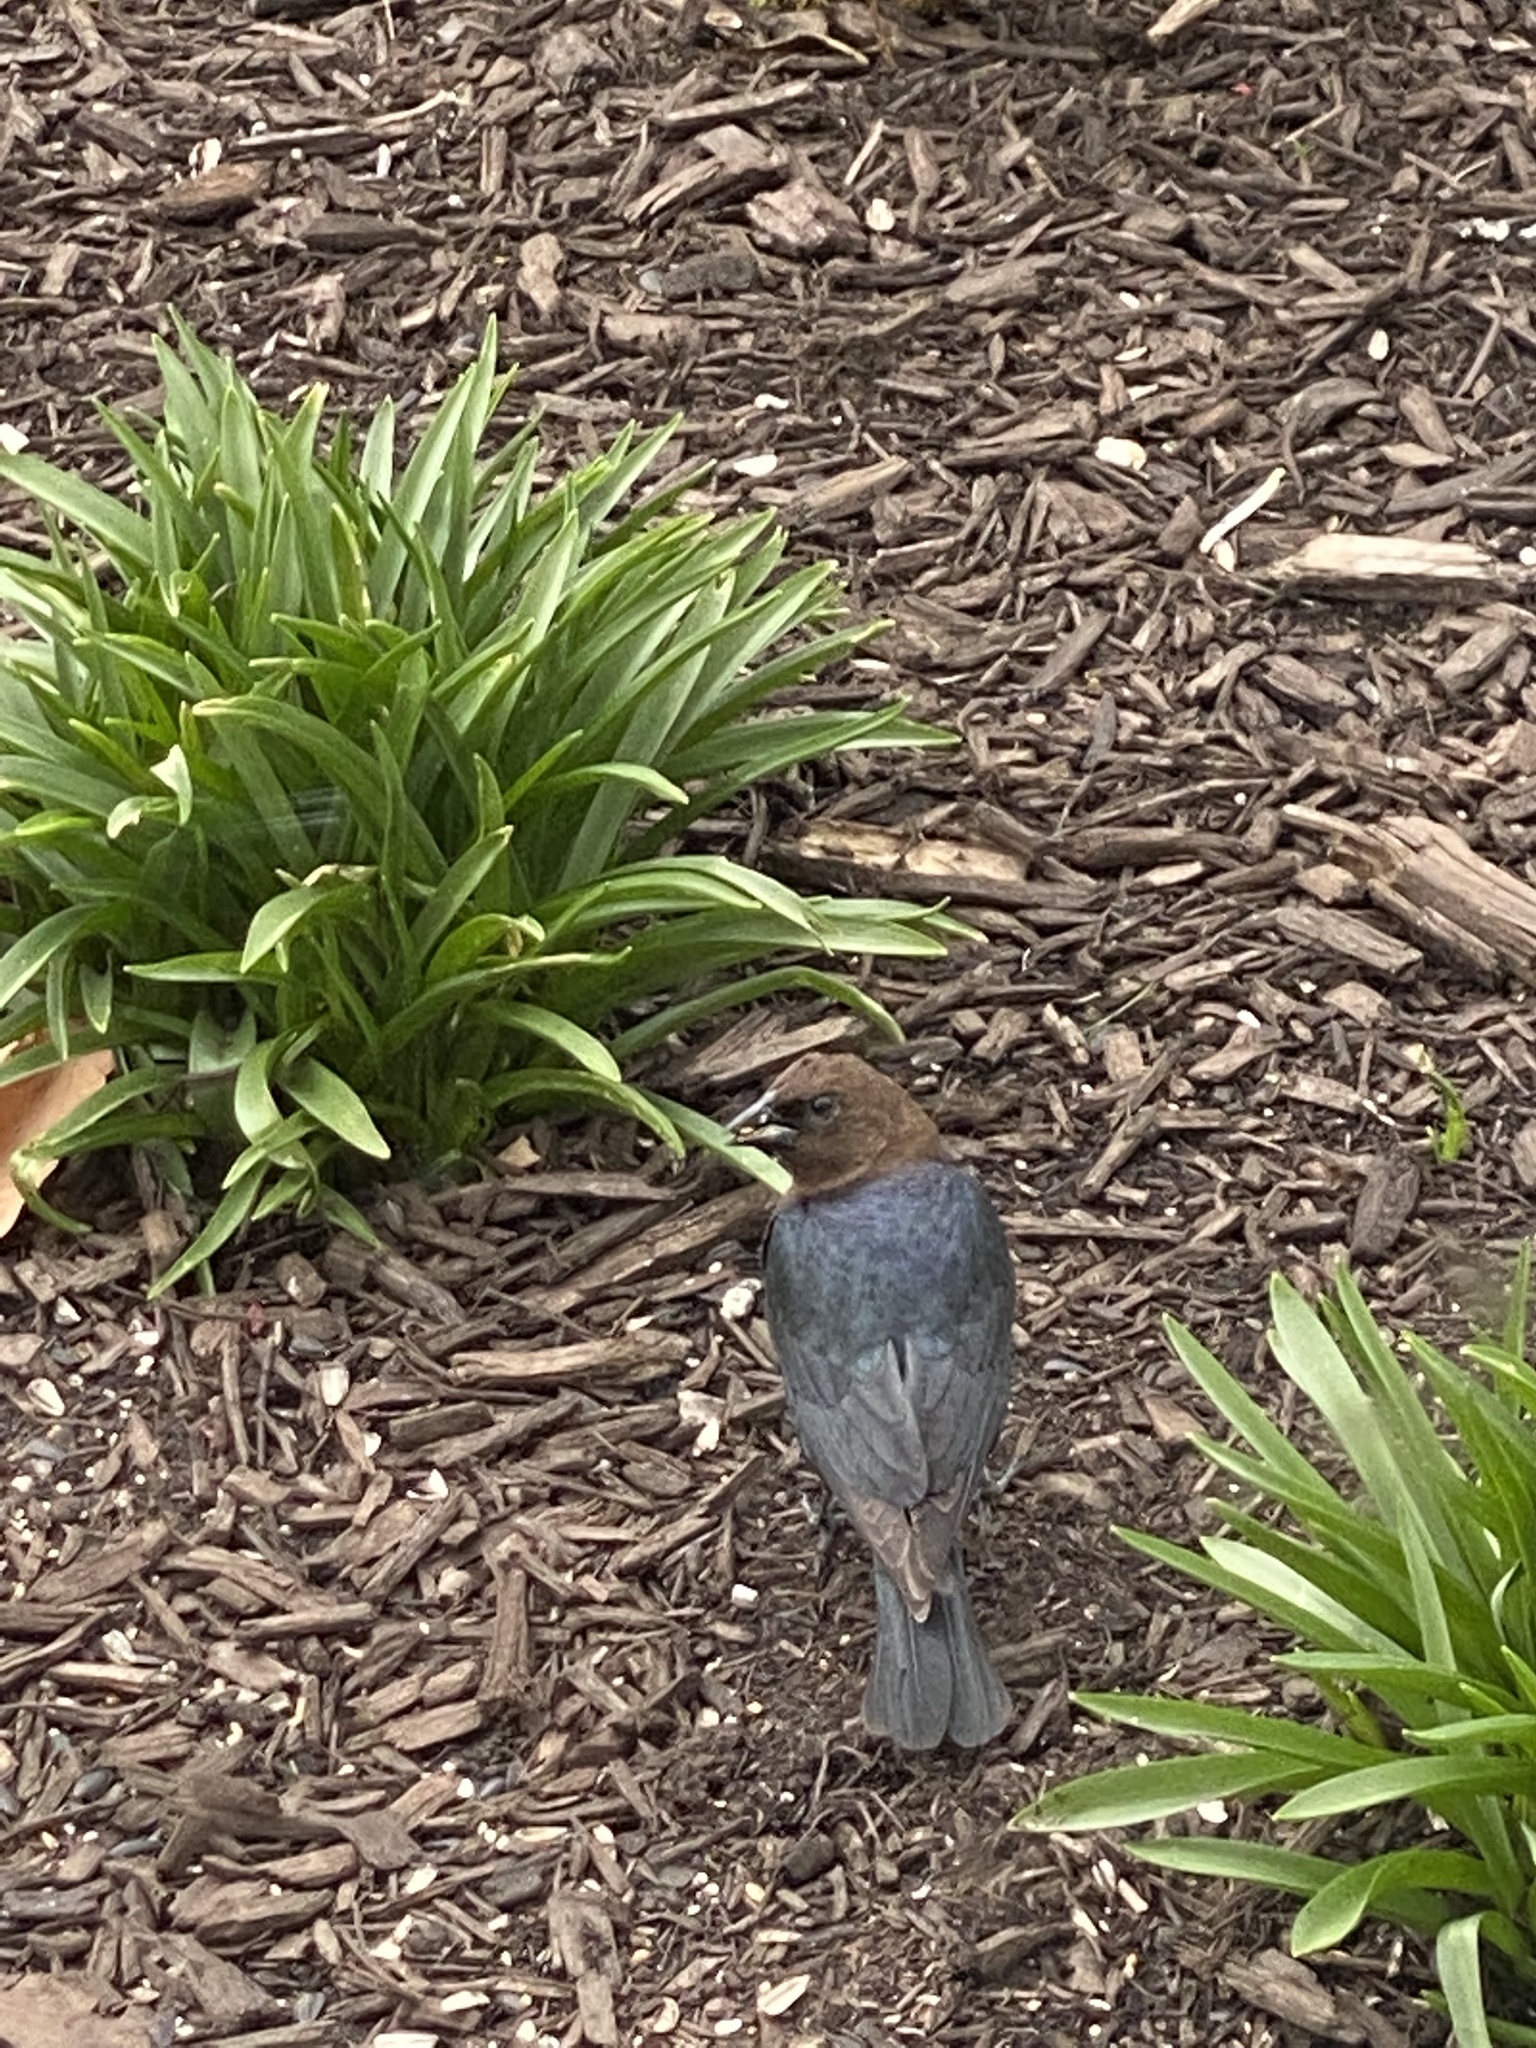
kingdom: Animalia
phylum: Chordata
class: Aves
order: Passeriformes
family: Icteridae
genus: Molothrus
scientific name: Molothrus ater
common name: Brown-headed cowbird
